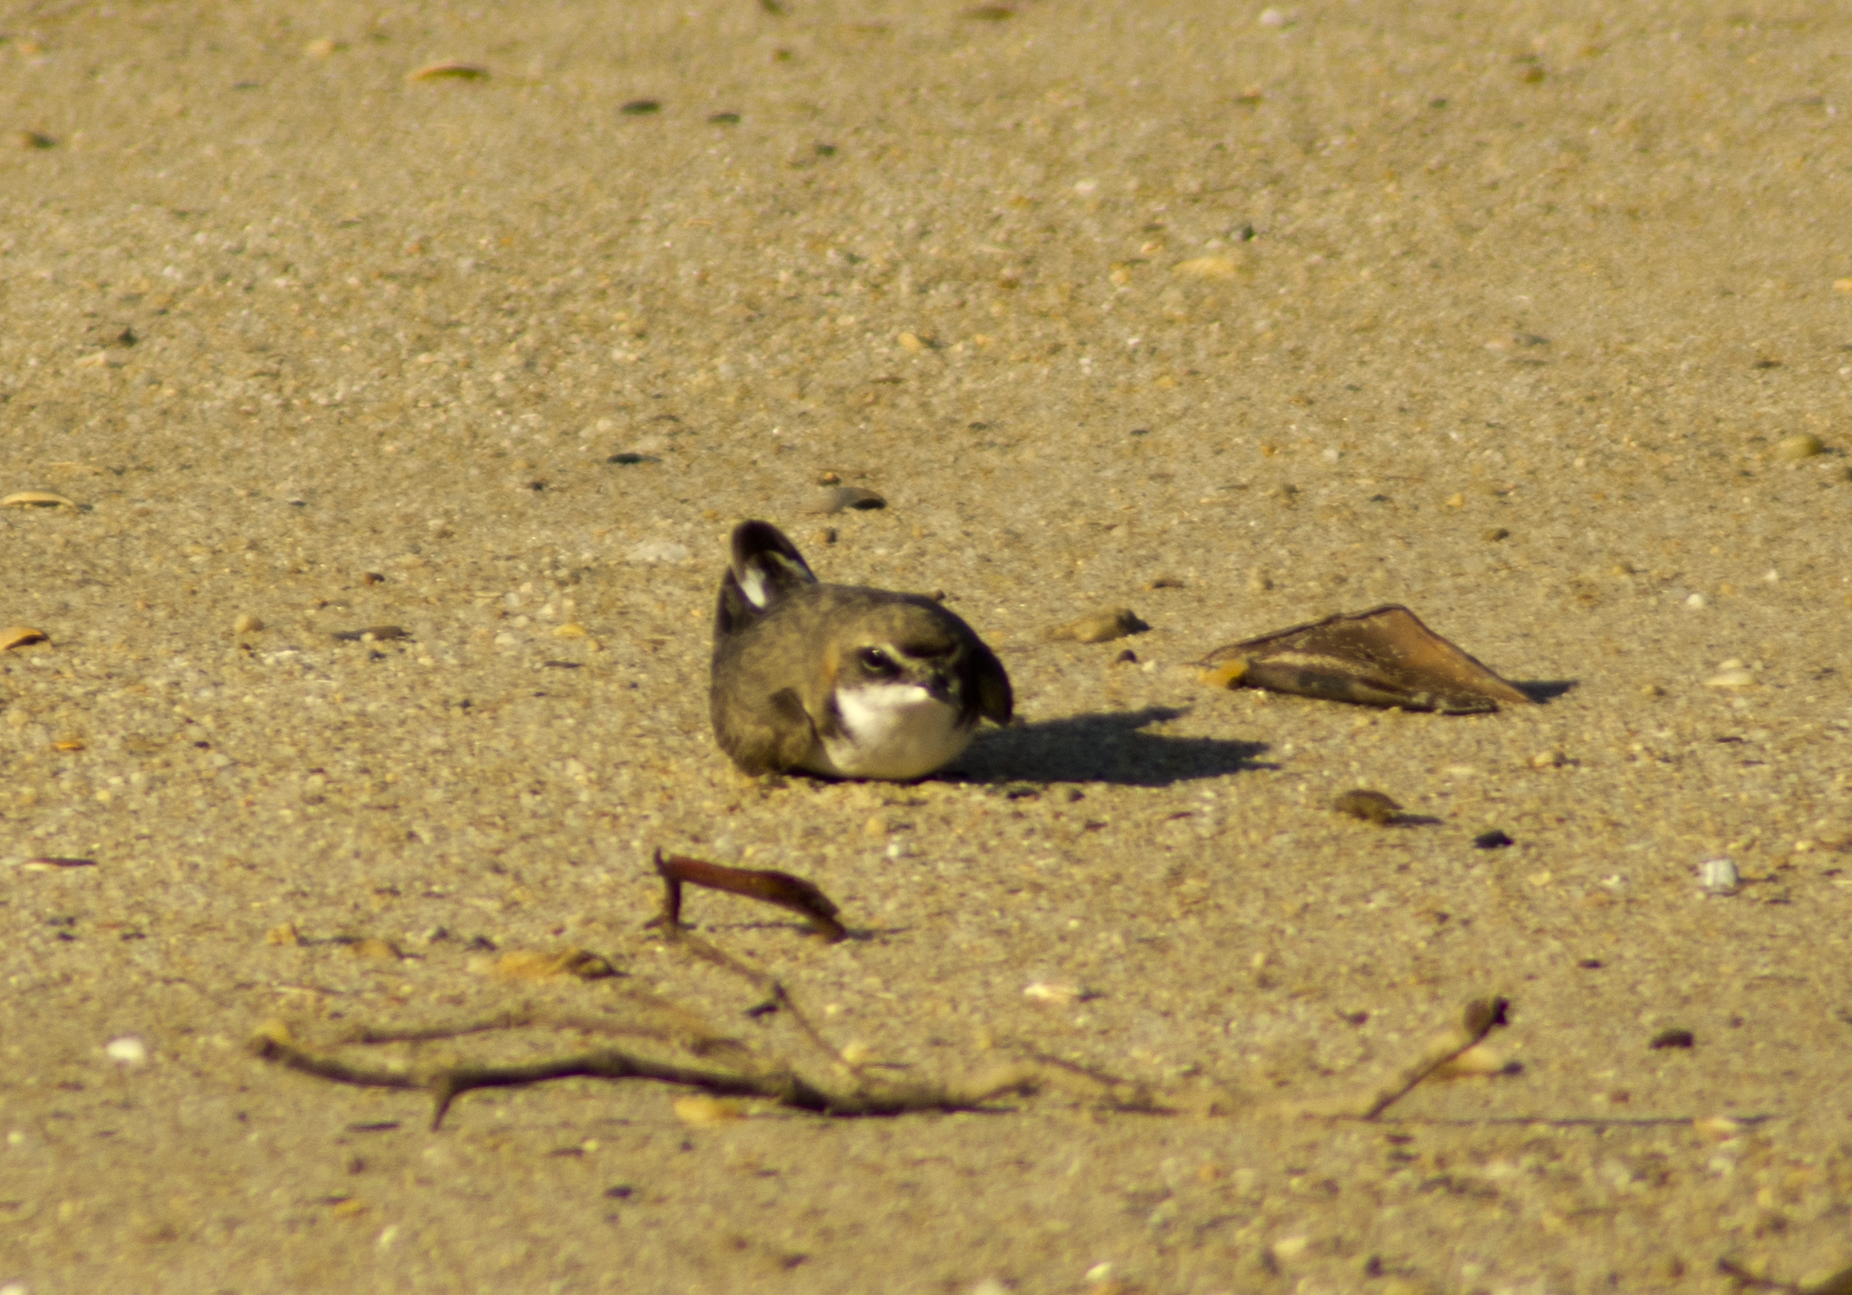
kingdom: Animalia
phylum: Chordata
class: Aves
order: Charadriiformes
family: Charadriidae
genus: Anarhynchus
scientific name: Anarhynchus
